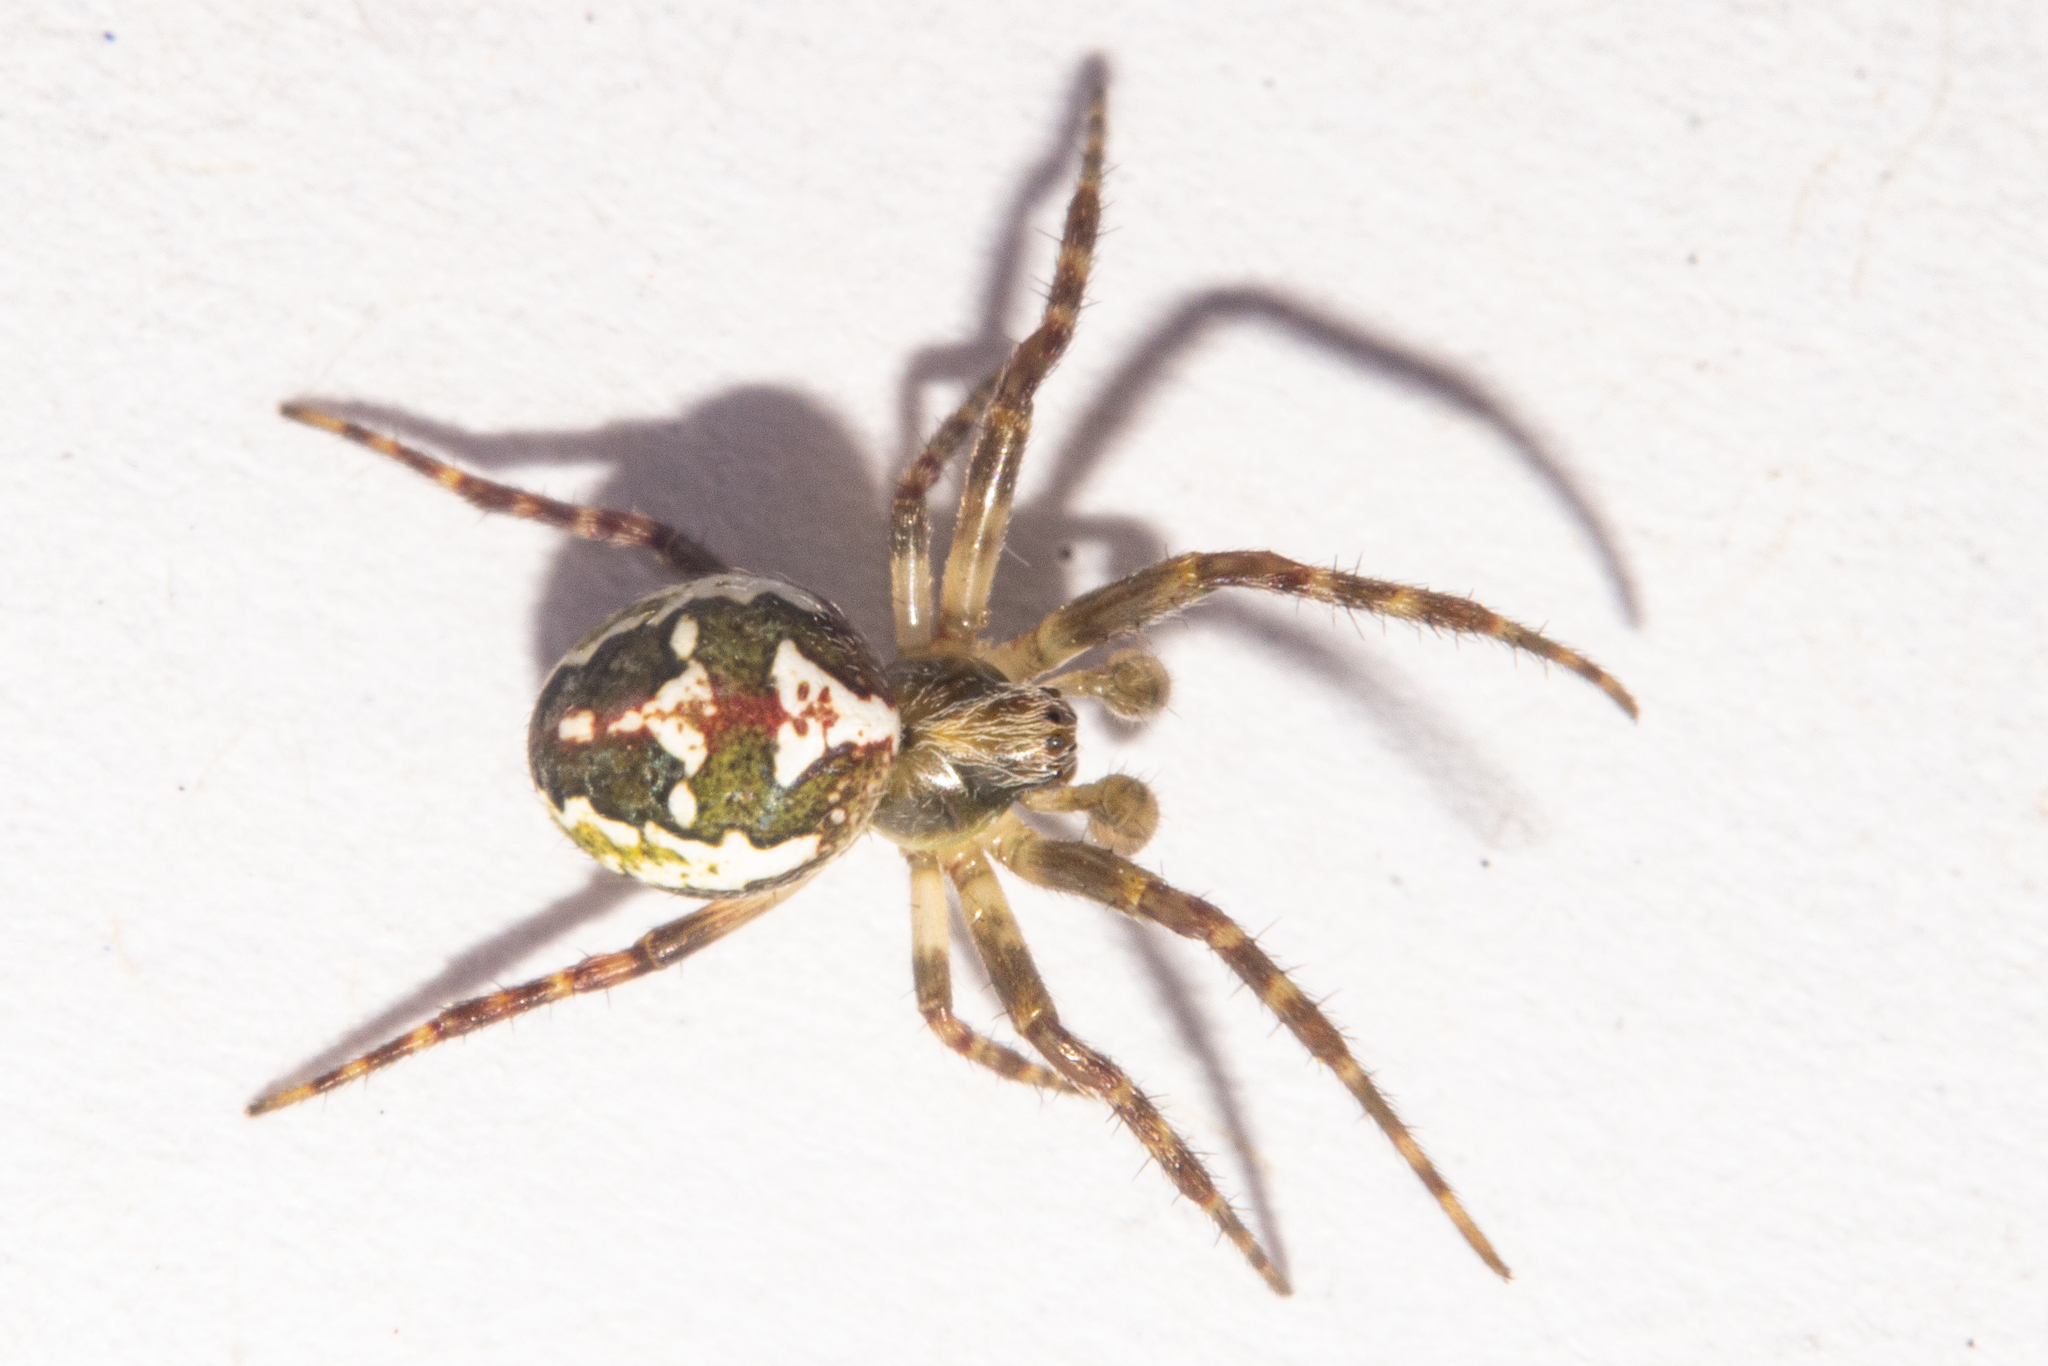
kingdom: Animalia
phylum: Arthropoda
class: Arachnida
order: Araneae
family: Araneidae
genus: Colaranea
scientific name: Colaranea verutum
